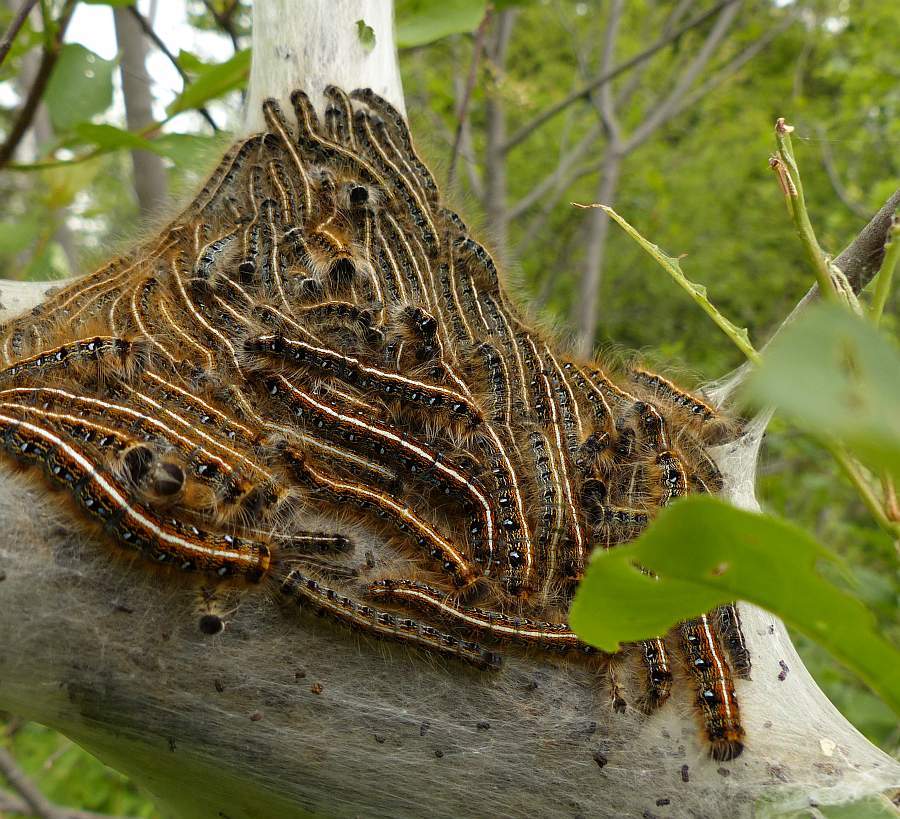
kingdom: Animalia
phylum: Arthropoda
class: Insecta
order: Lepidoptera
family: Lasiocampidae
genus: Malacosoma
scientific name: Malacosoma americana
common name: Eastern tent caterpillar moth
